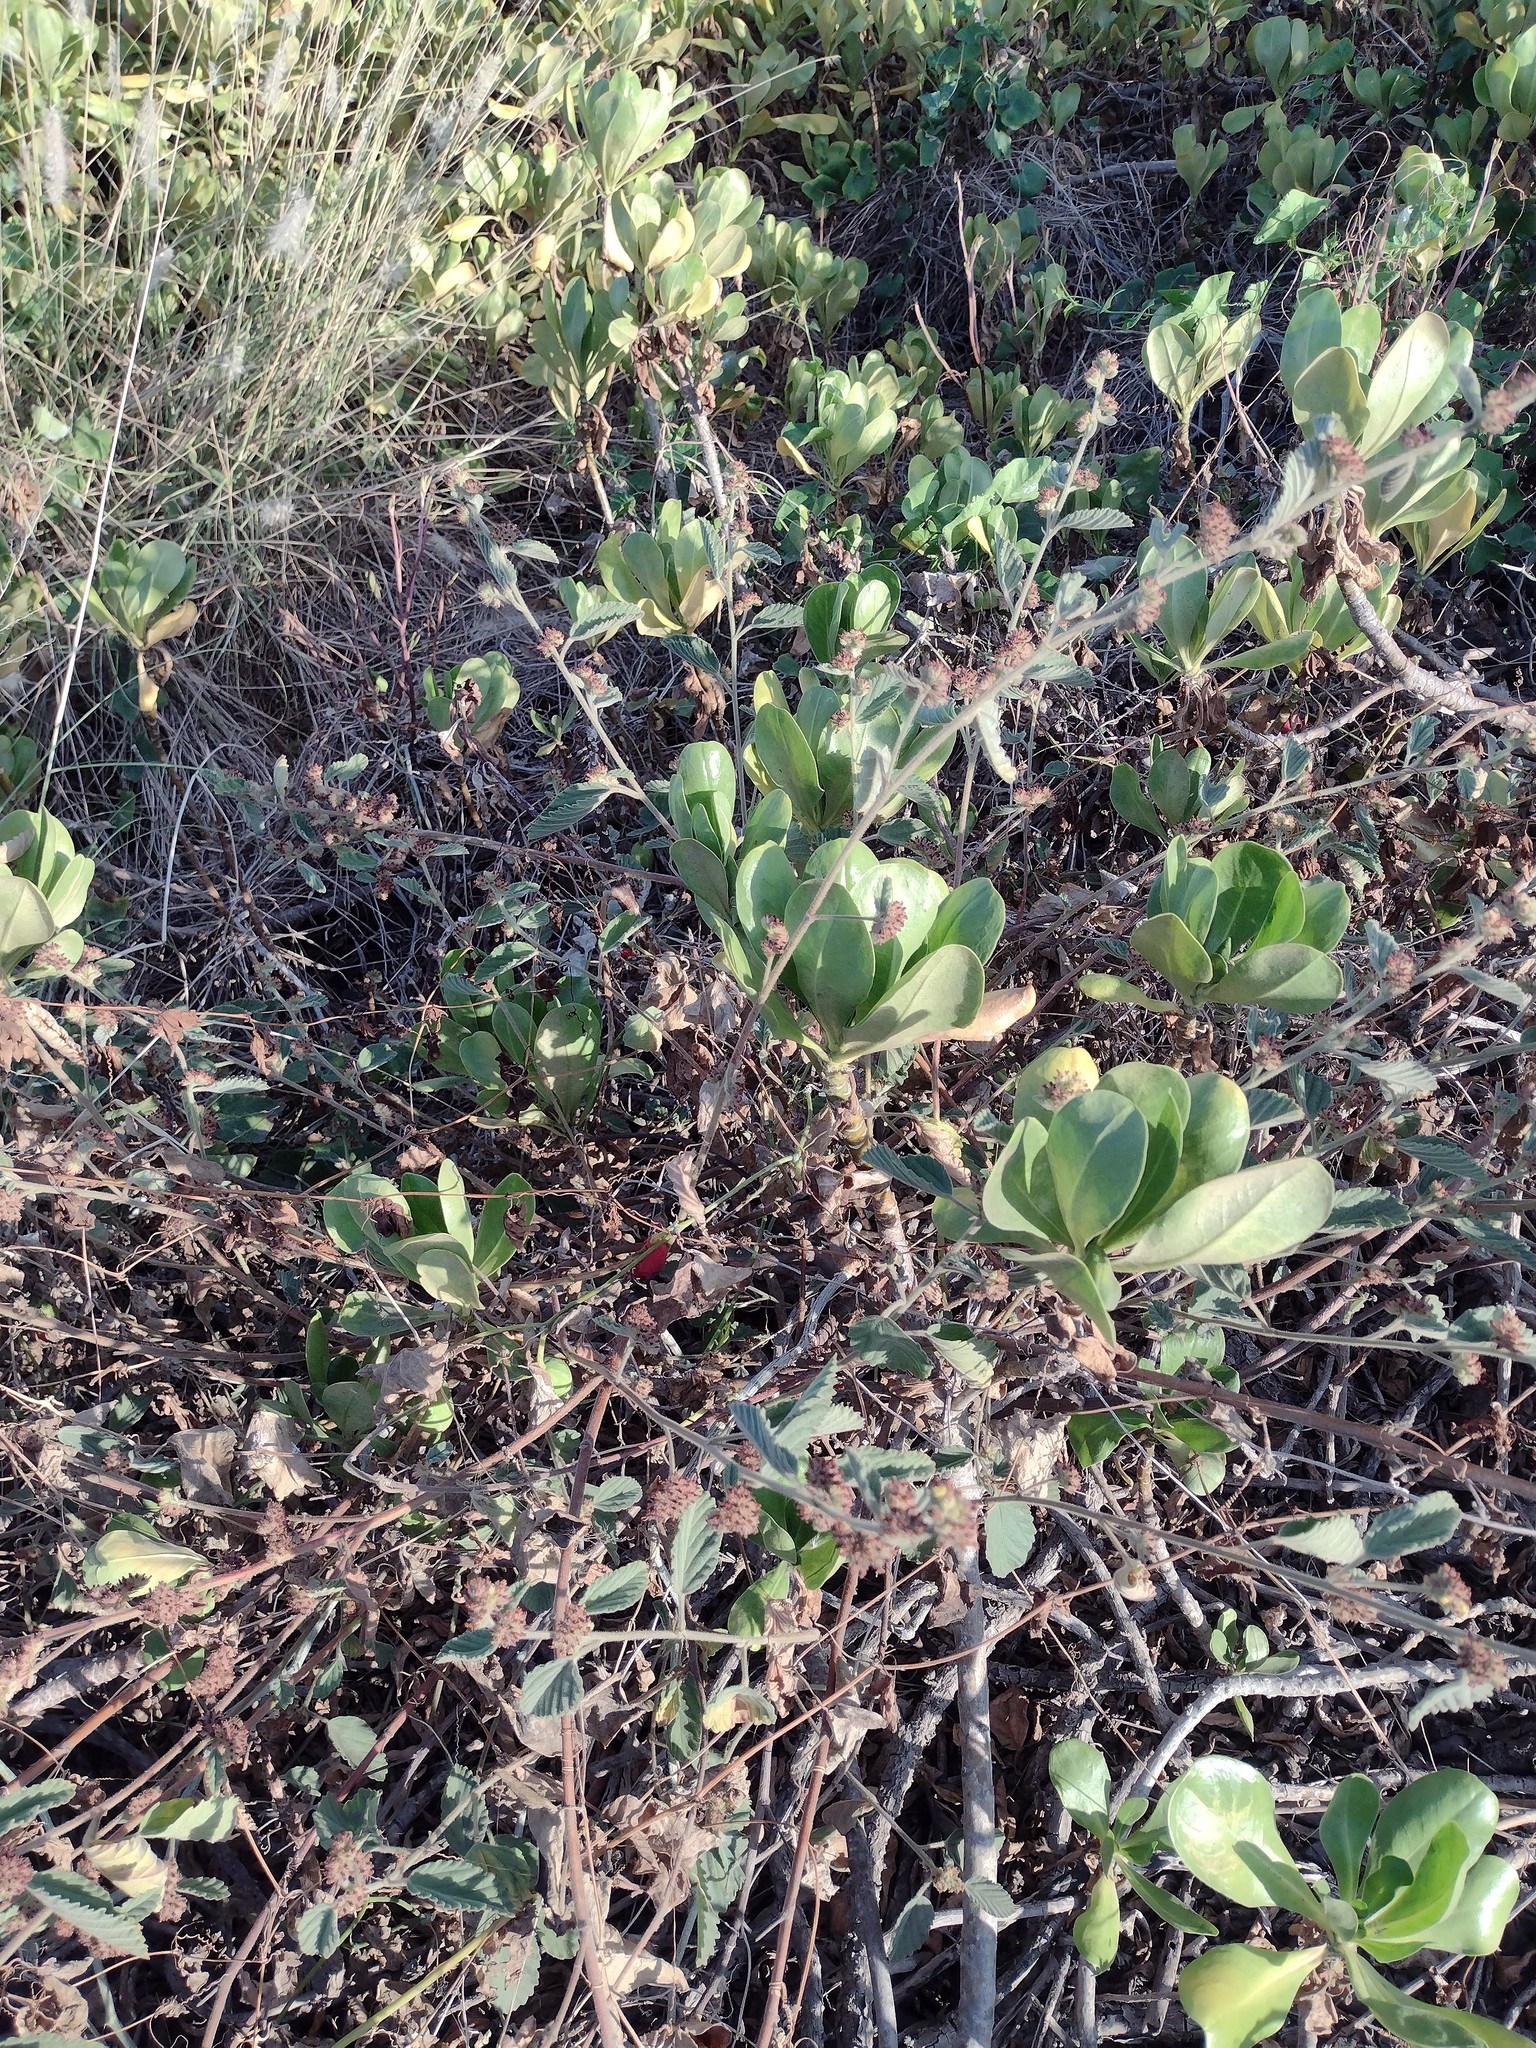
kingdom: Plantae
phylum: Tracheophyta
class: Magnoliopsida
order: Malvales
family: Malvaceae
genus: Waltheria
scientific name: Waltheria indica
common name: Leather-coat
